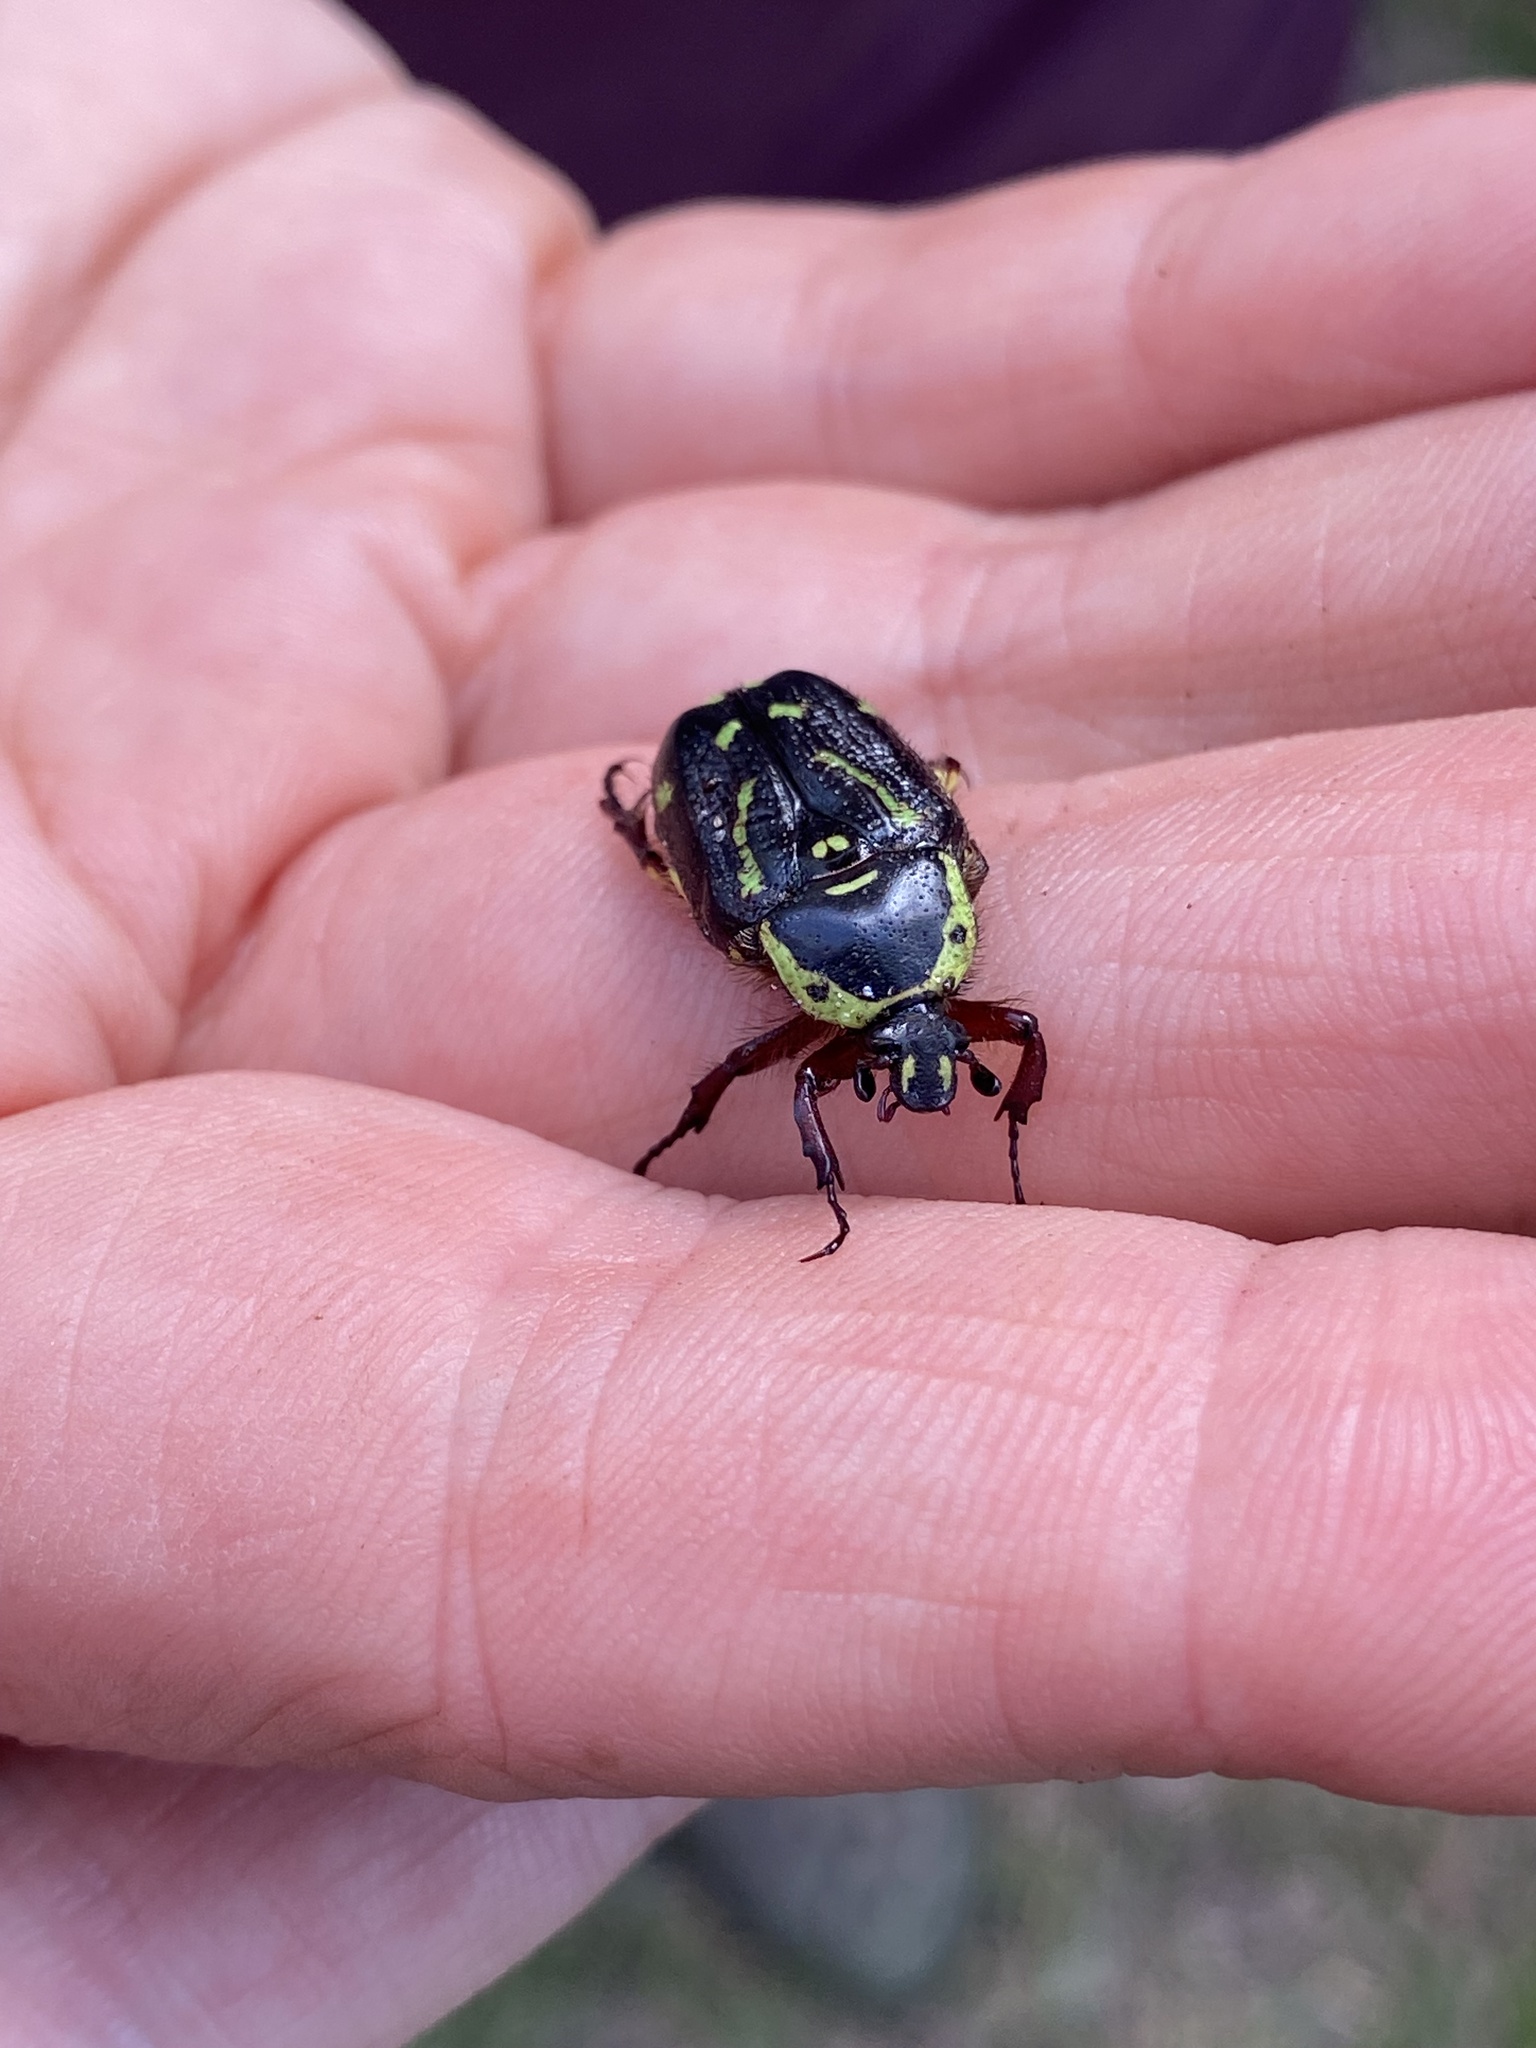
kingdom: Animalia
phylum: Arthropoda
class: Insecta
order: Coleoptera
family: Scarabaeidae
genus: Chlorobapta
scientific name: Chlorobapta frontalis
